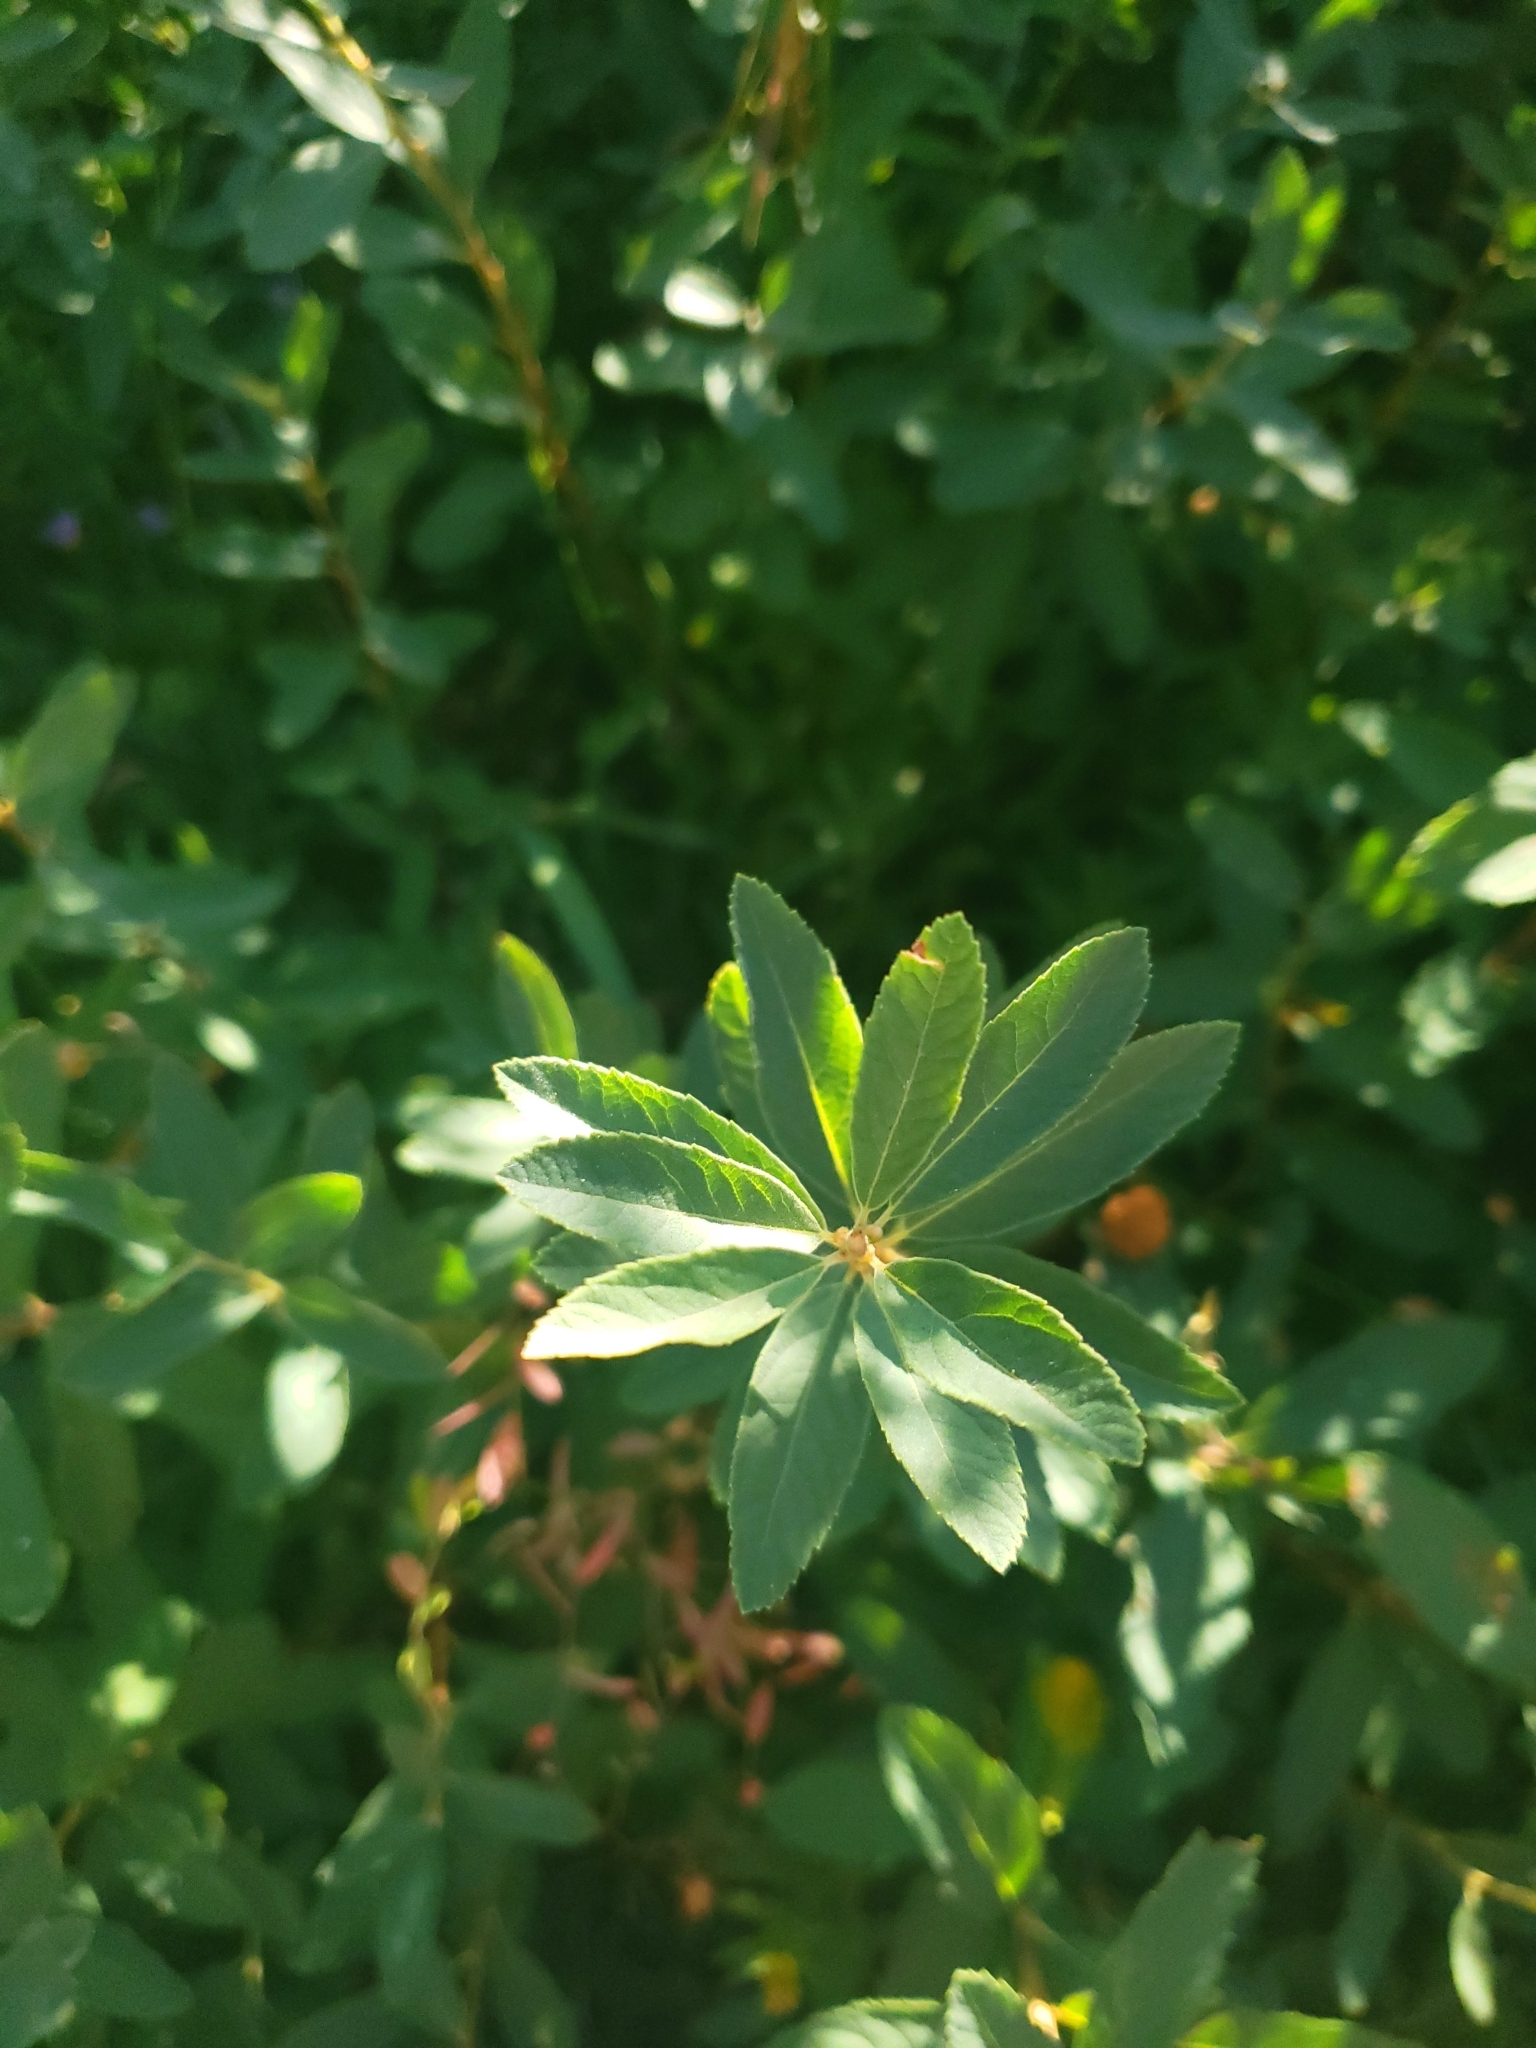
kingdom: Plantae
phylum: Tracheophyta
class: Magnoliopsida
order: Rosales
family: Rosaceae
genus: Spiraea
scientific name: Spiraea douglasii
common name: Steeplebush
